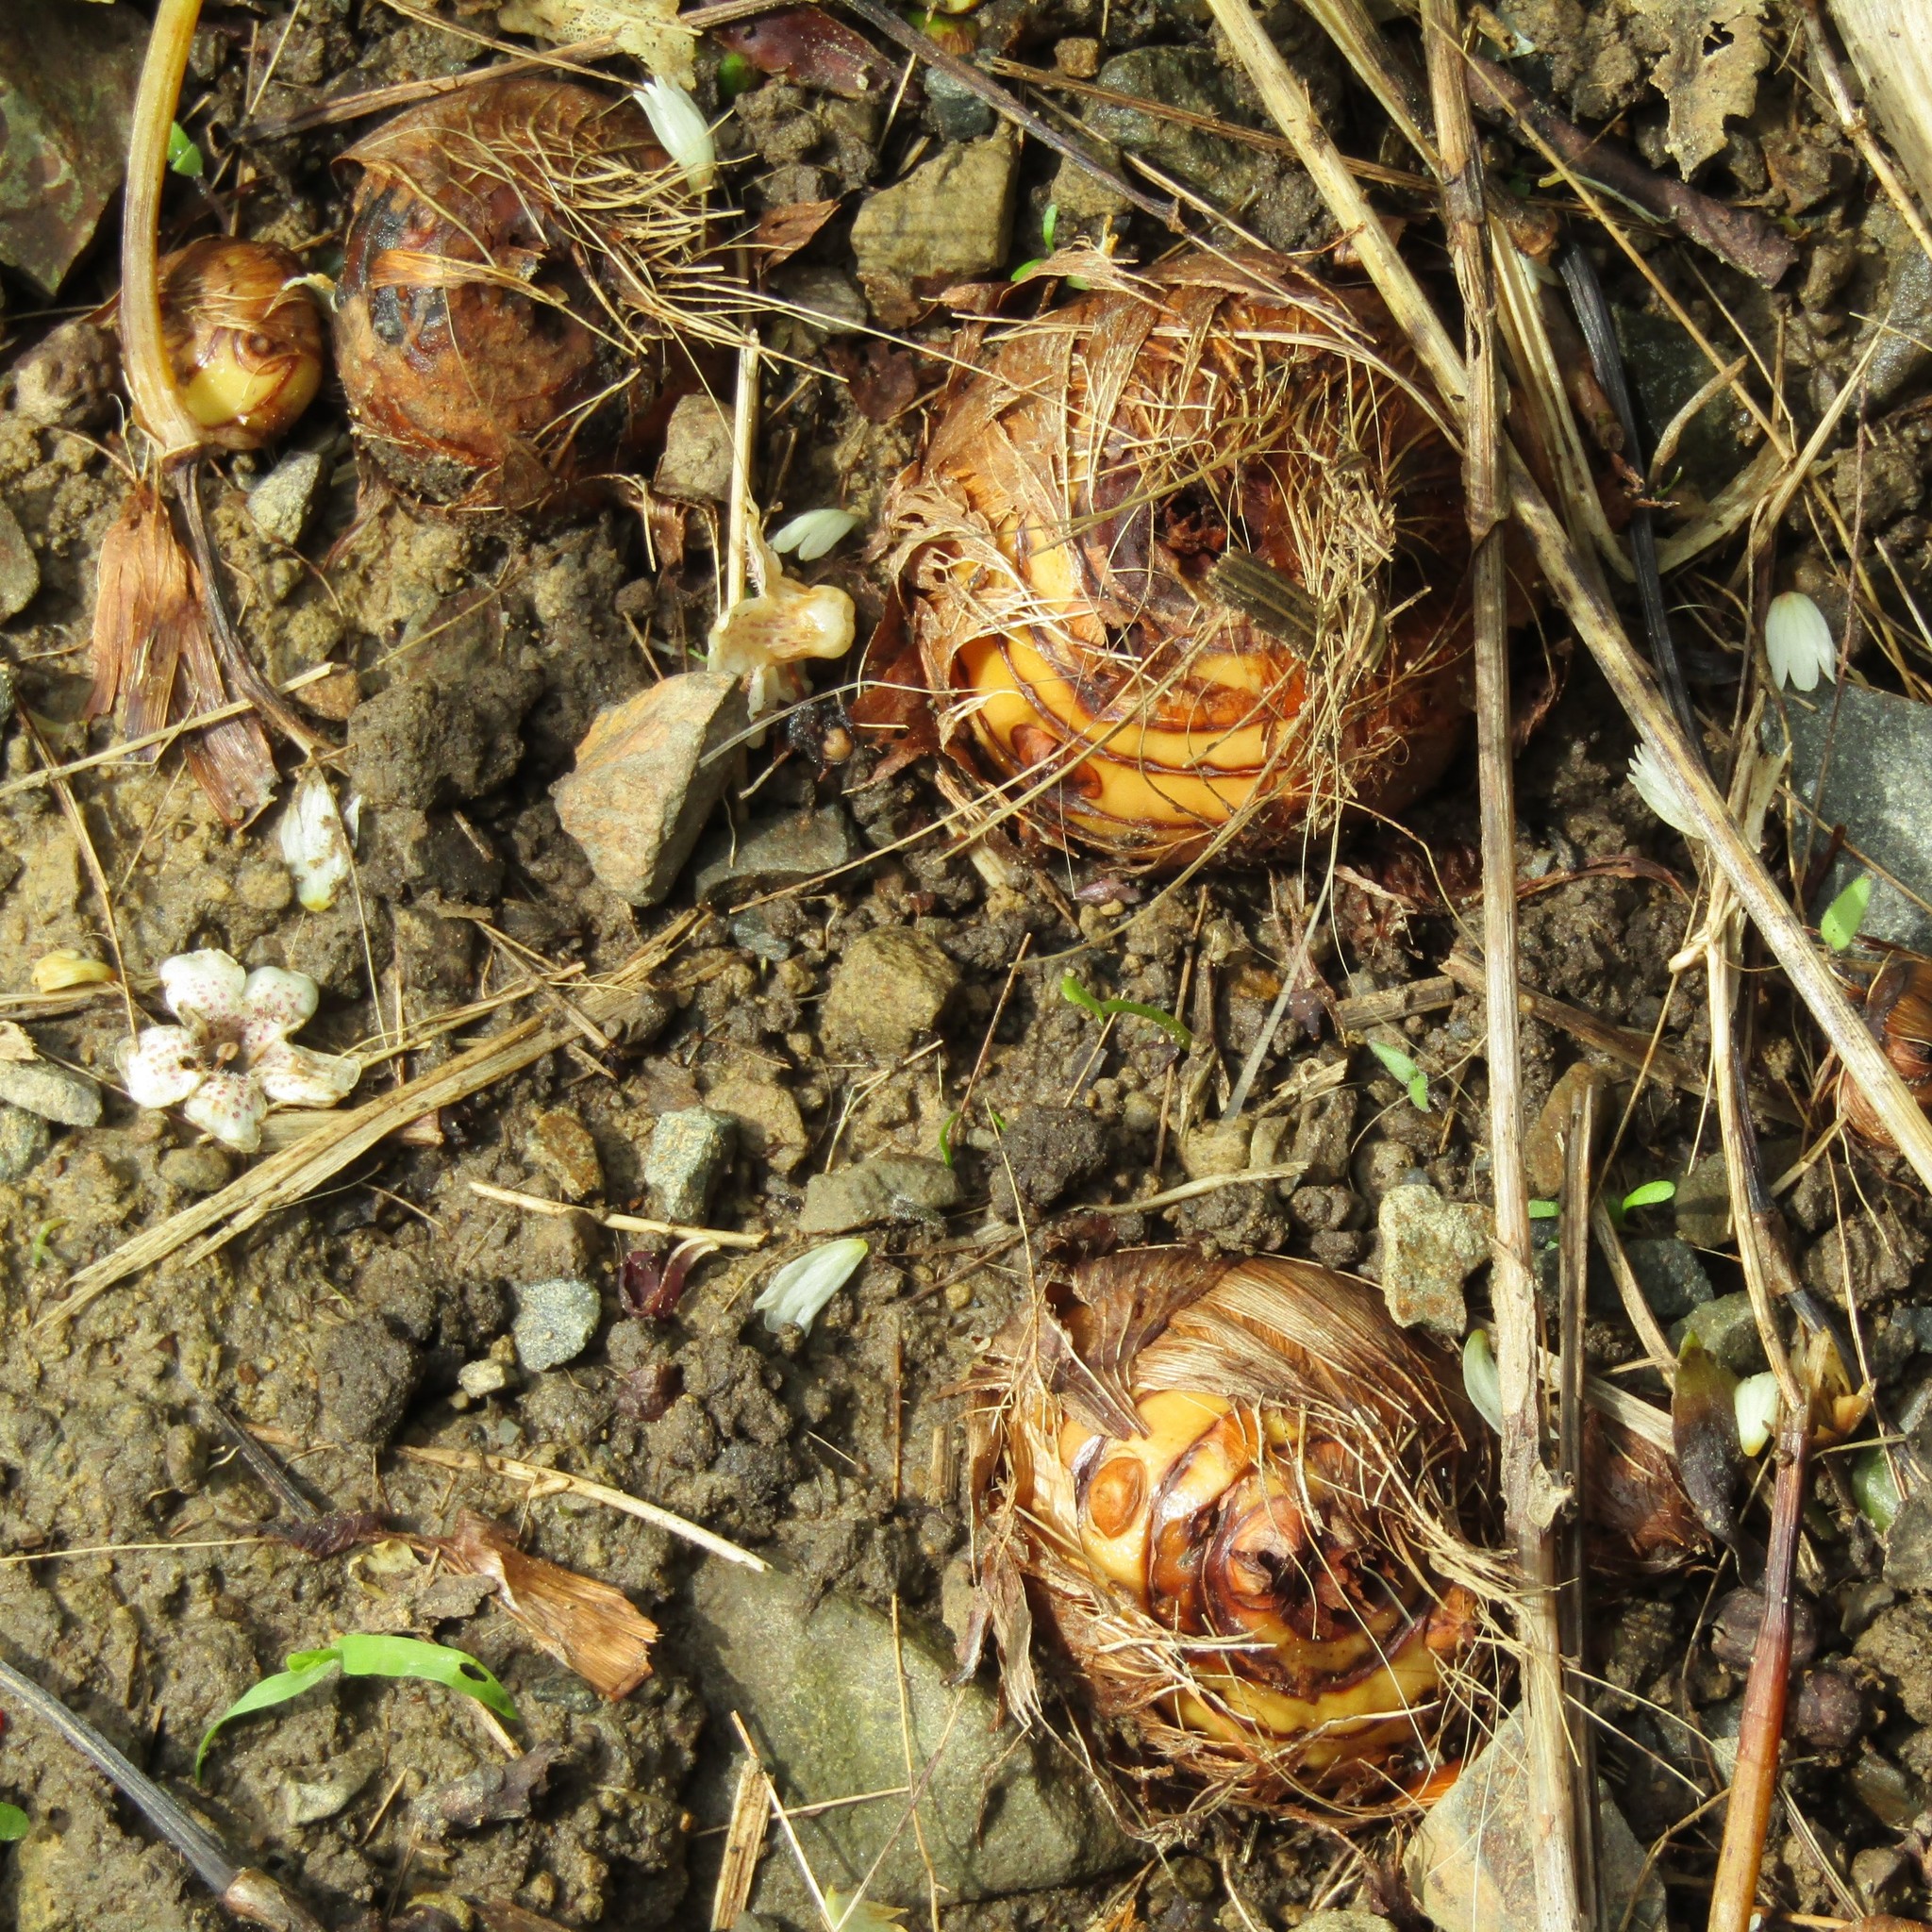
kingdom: Plantae
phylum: Tracheophyta
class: Liliopsida
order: Asparagales
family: Iridaceae
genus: Crocosmia
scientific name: Crocosmia crocosmiiflora
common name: Montbretia
